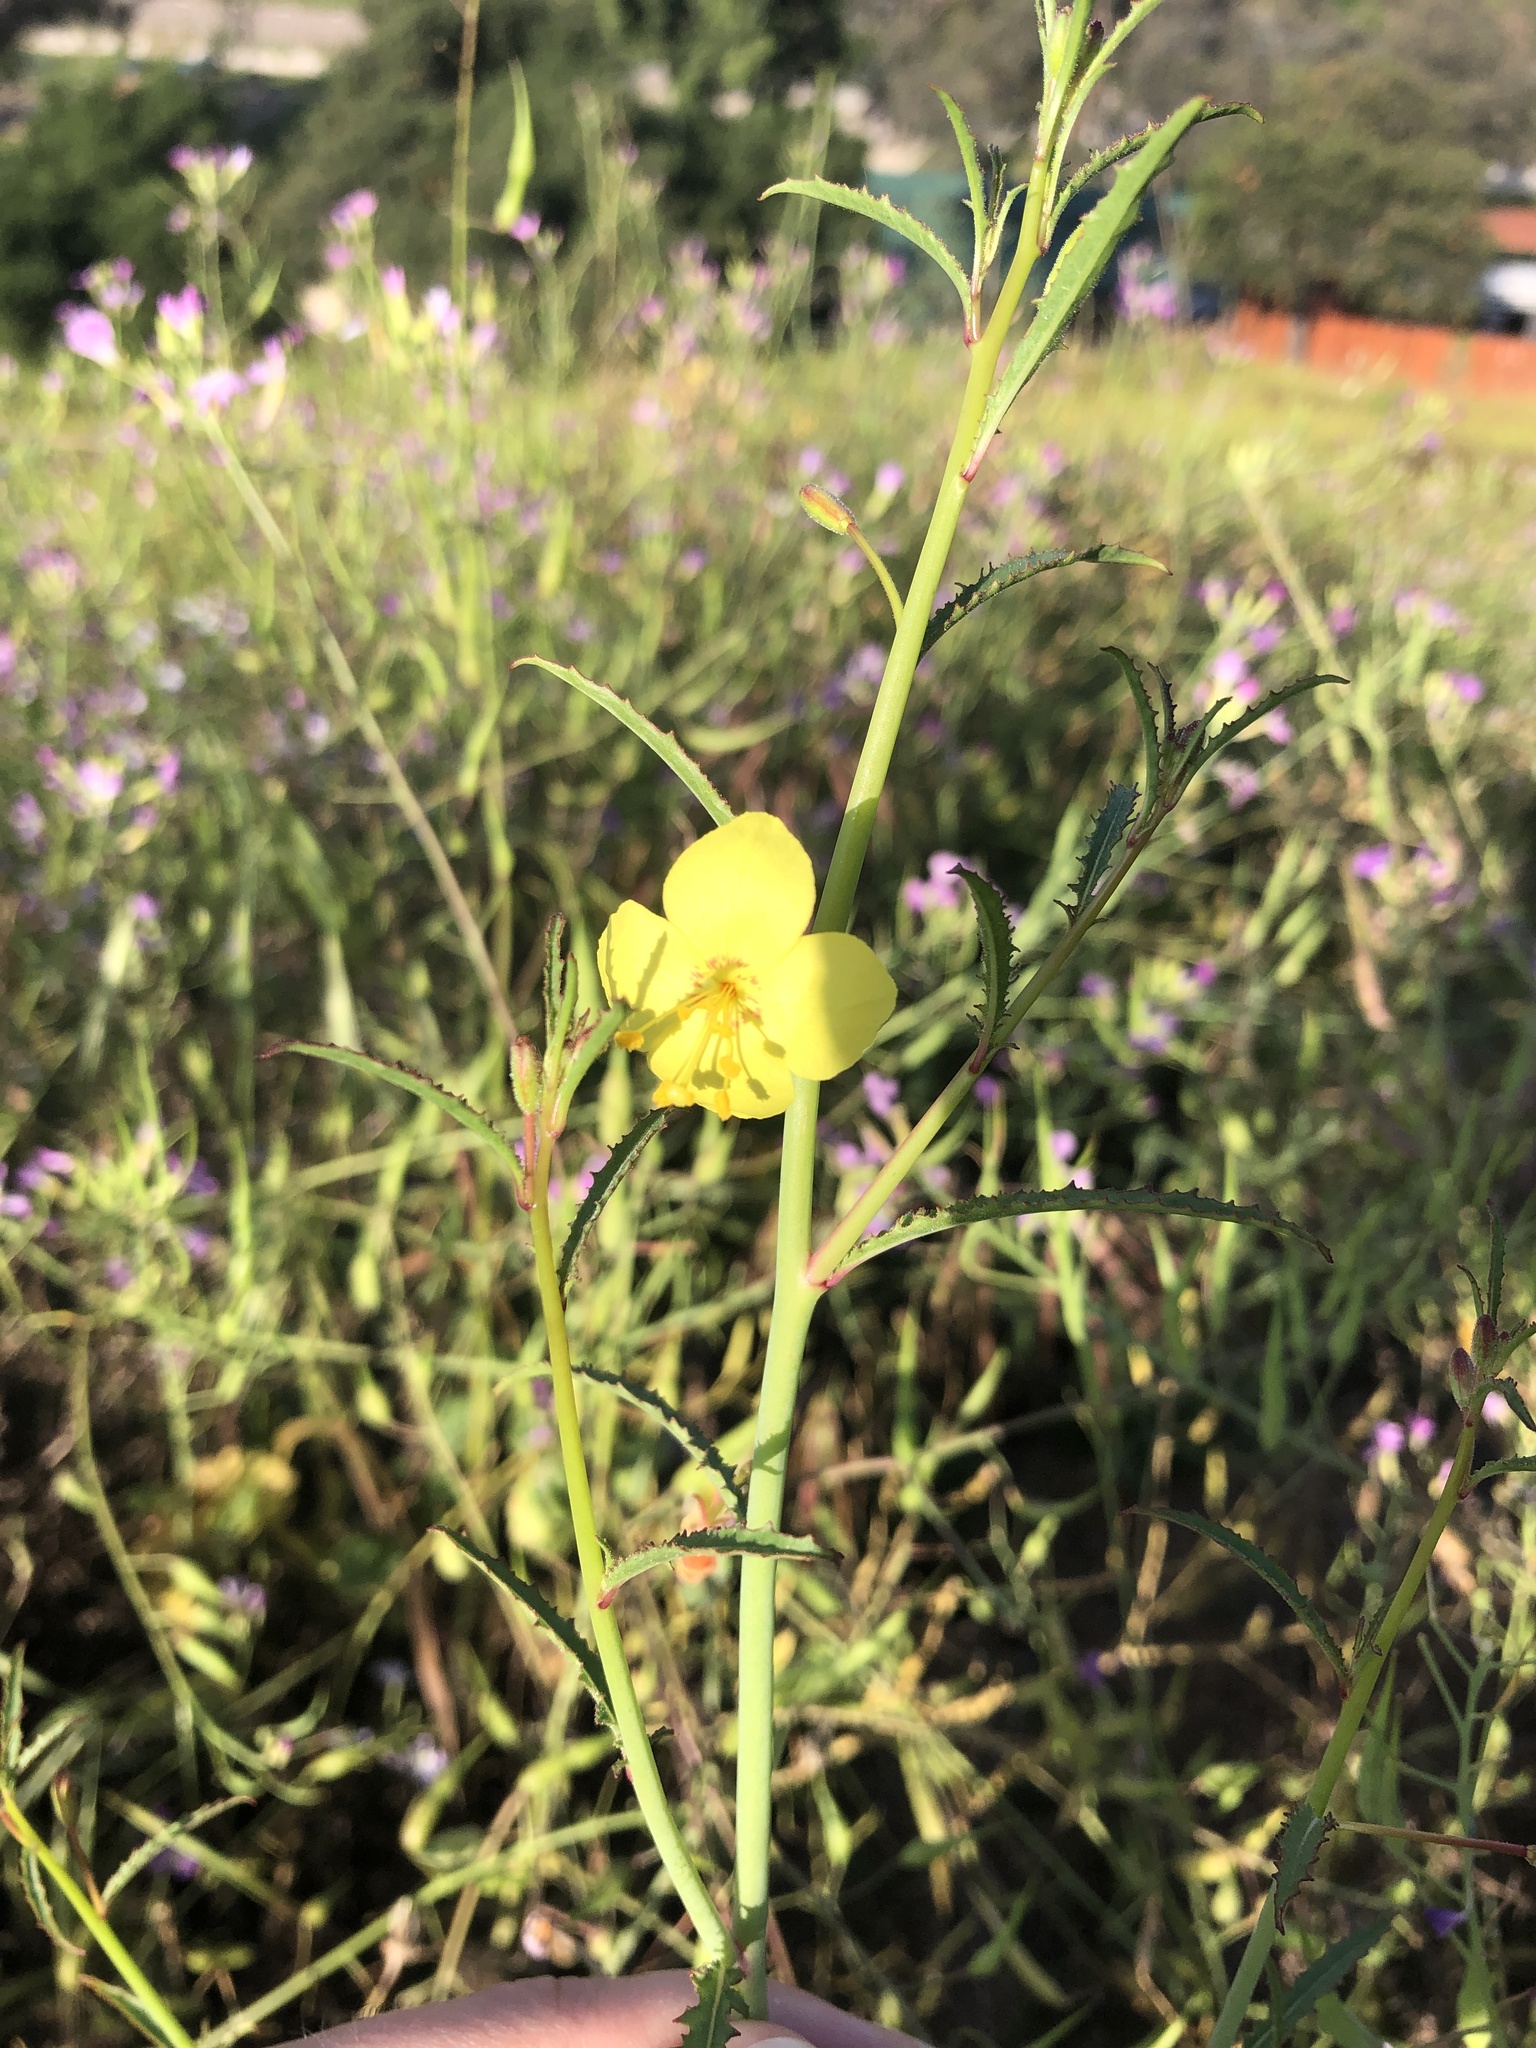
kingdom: Plantae
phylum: Tracheophyta
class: Magnoliopsida
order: Myrtales
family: Onagraceae
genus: Eulobus
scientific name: Eulobus californicus
